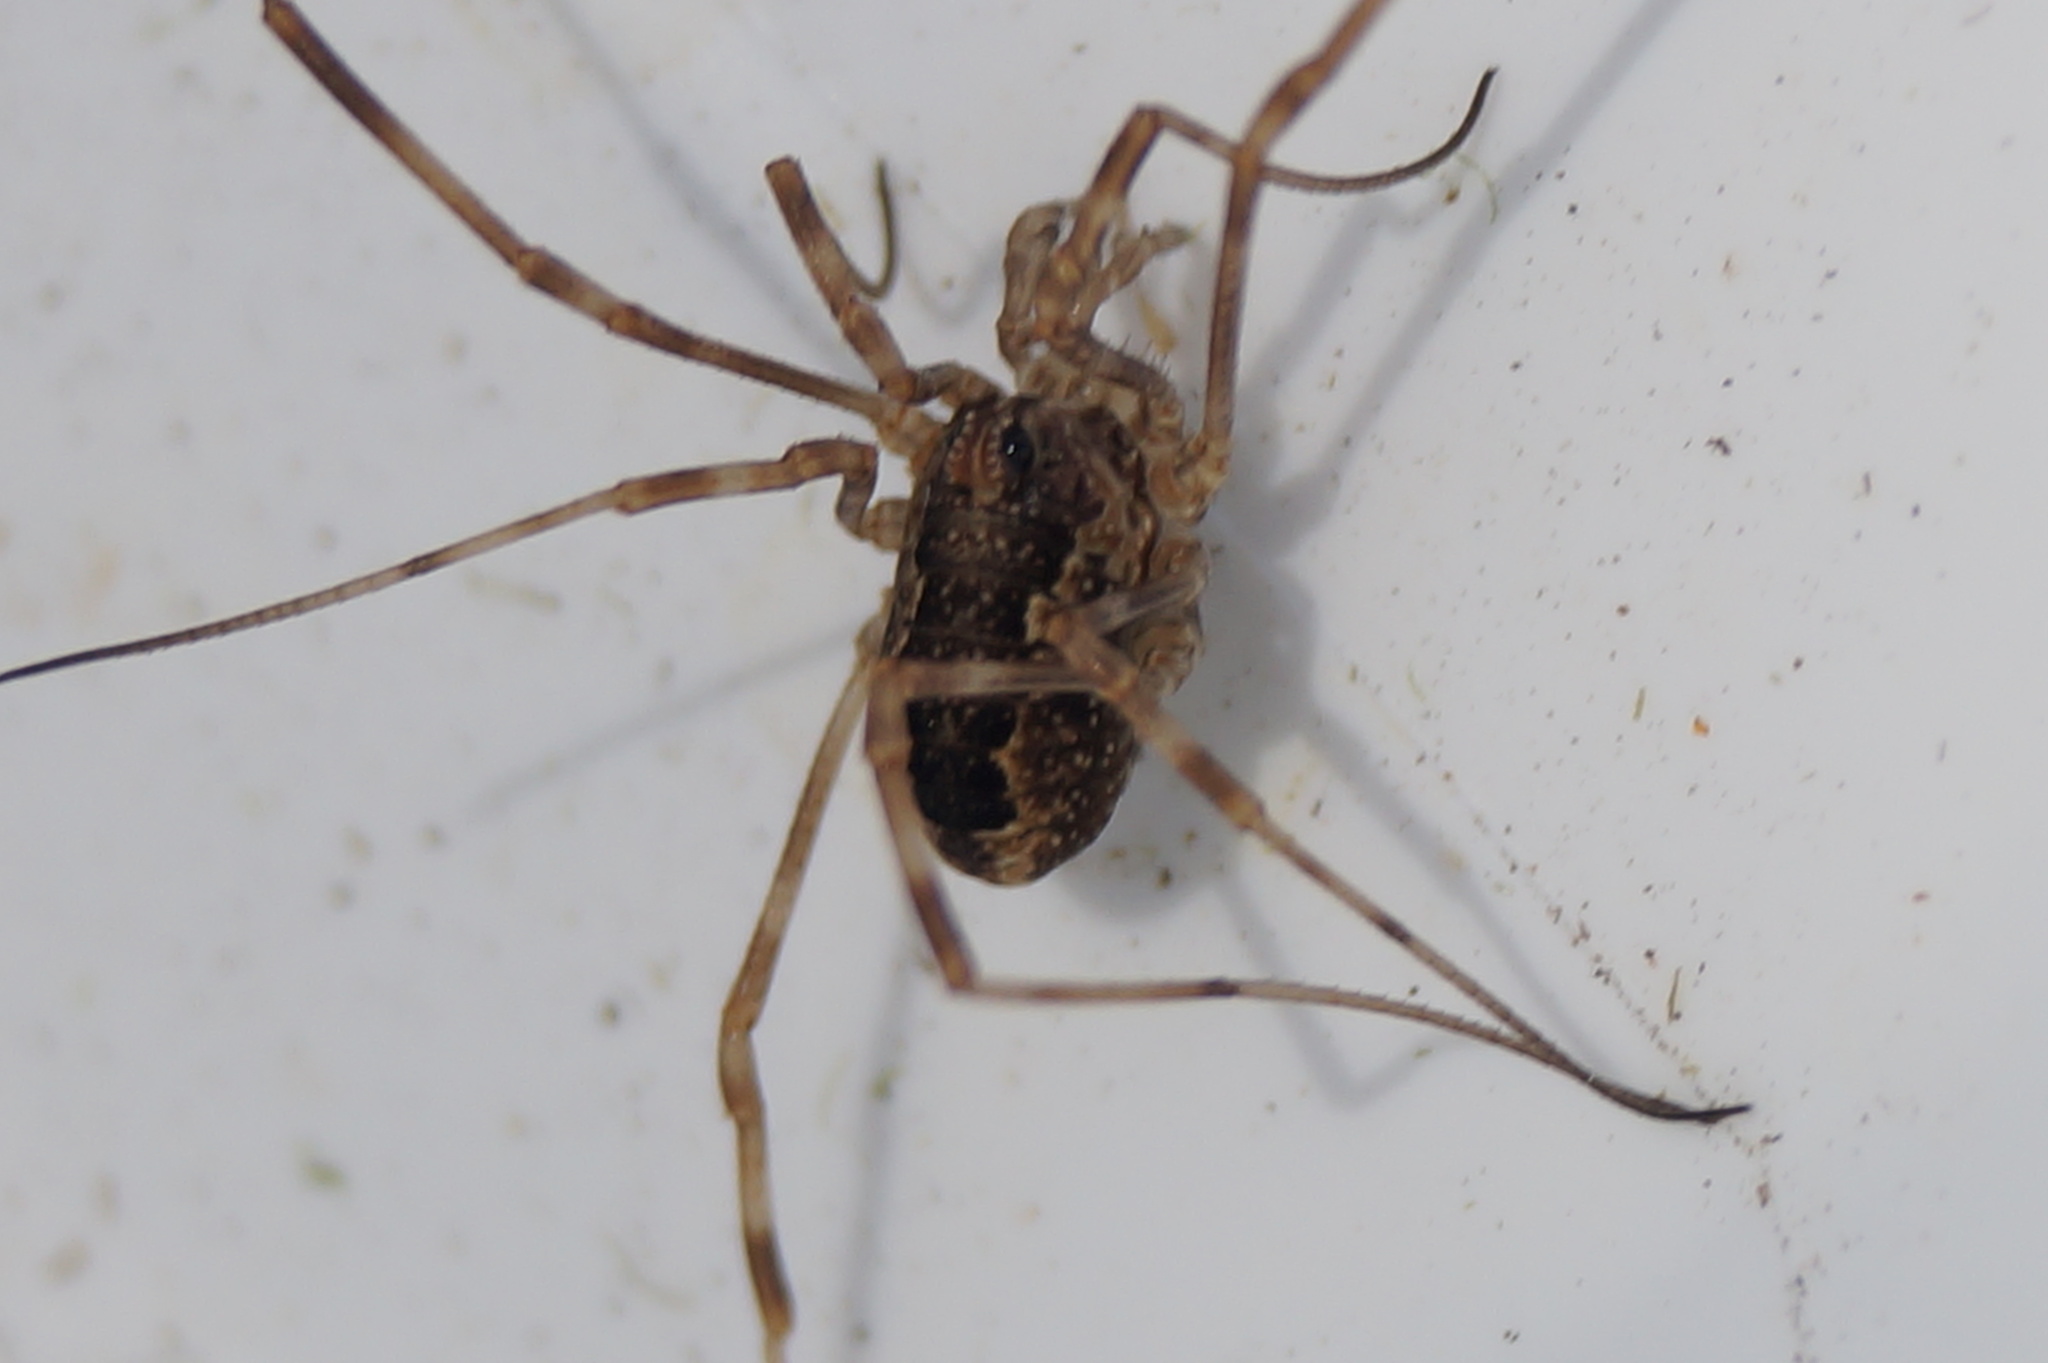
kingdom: Animalia
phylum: Arthropoda
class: Arachnida
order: Opiliones
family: Phalangiidae
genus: Rilaena
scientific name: Rilaena triangularis
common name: Spring harvestman
